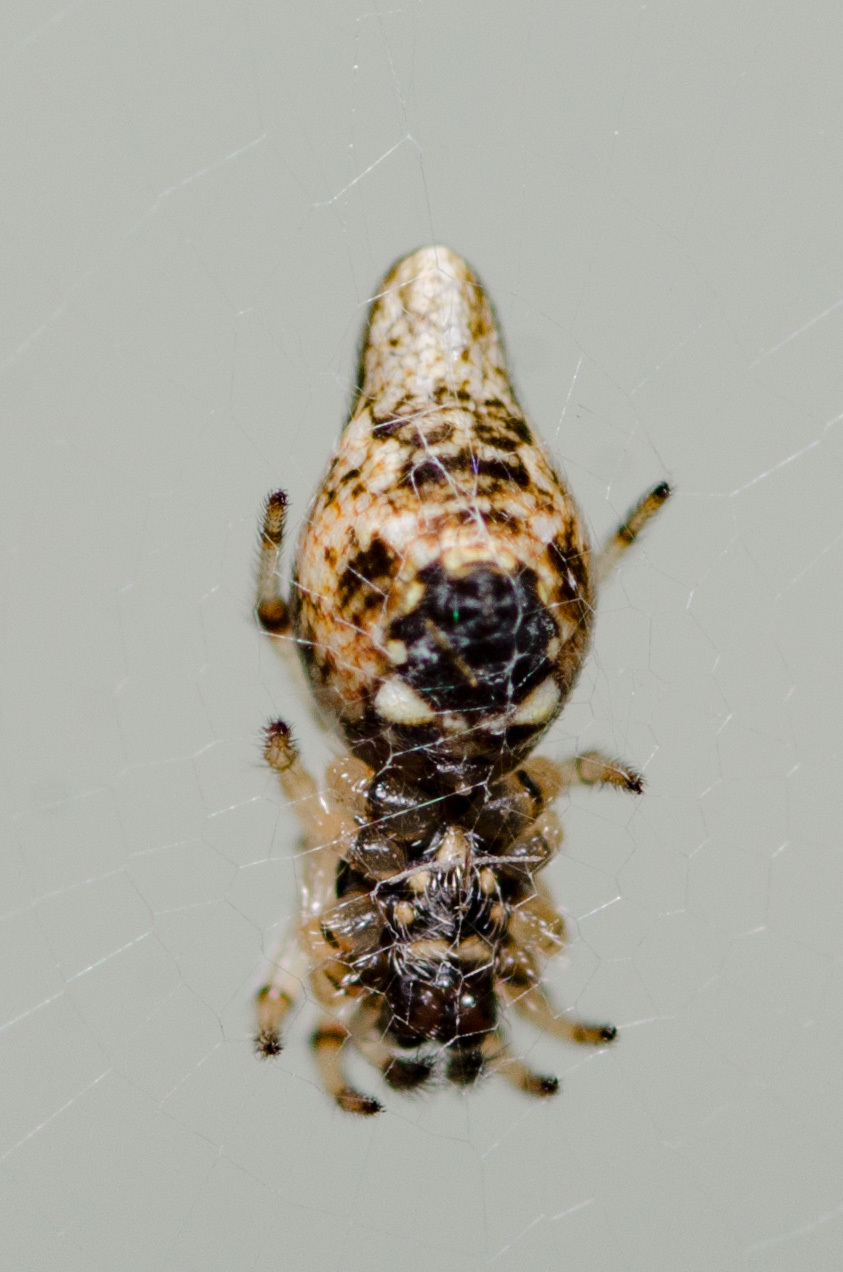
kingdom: Animalia
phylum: Arthropoda
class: Arachnida
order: Araneae
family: Araneidae
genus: Cyclosa
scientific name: Cyclosa turbinata
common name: Orb weavers
